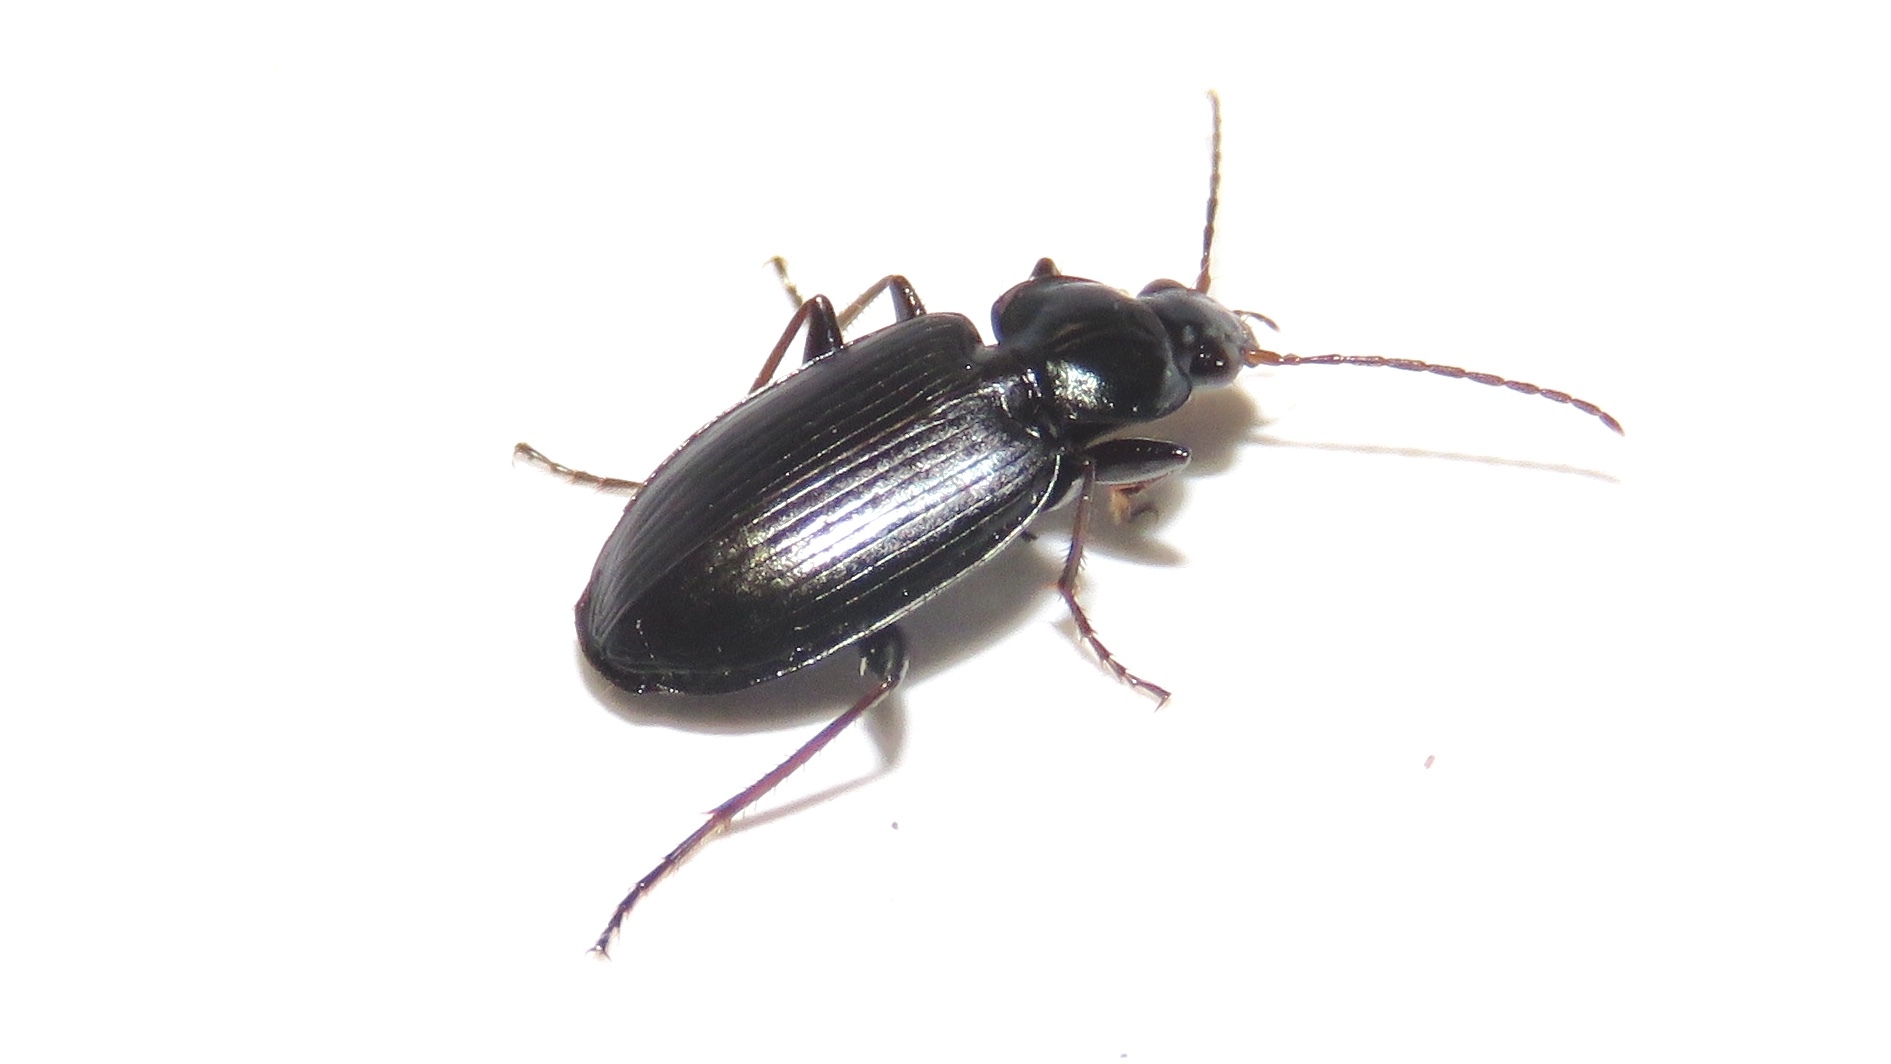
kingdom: Animalia
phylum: Arthropoda
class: Insecta
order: Coleoptera
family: Carabidae
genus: Agonum
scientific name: Agonum placidum
